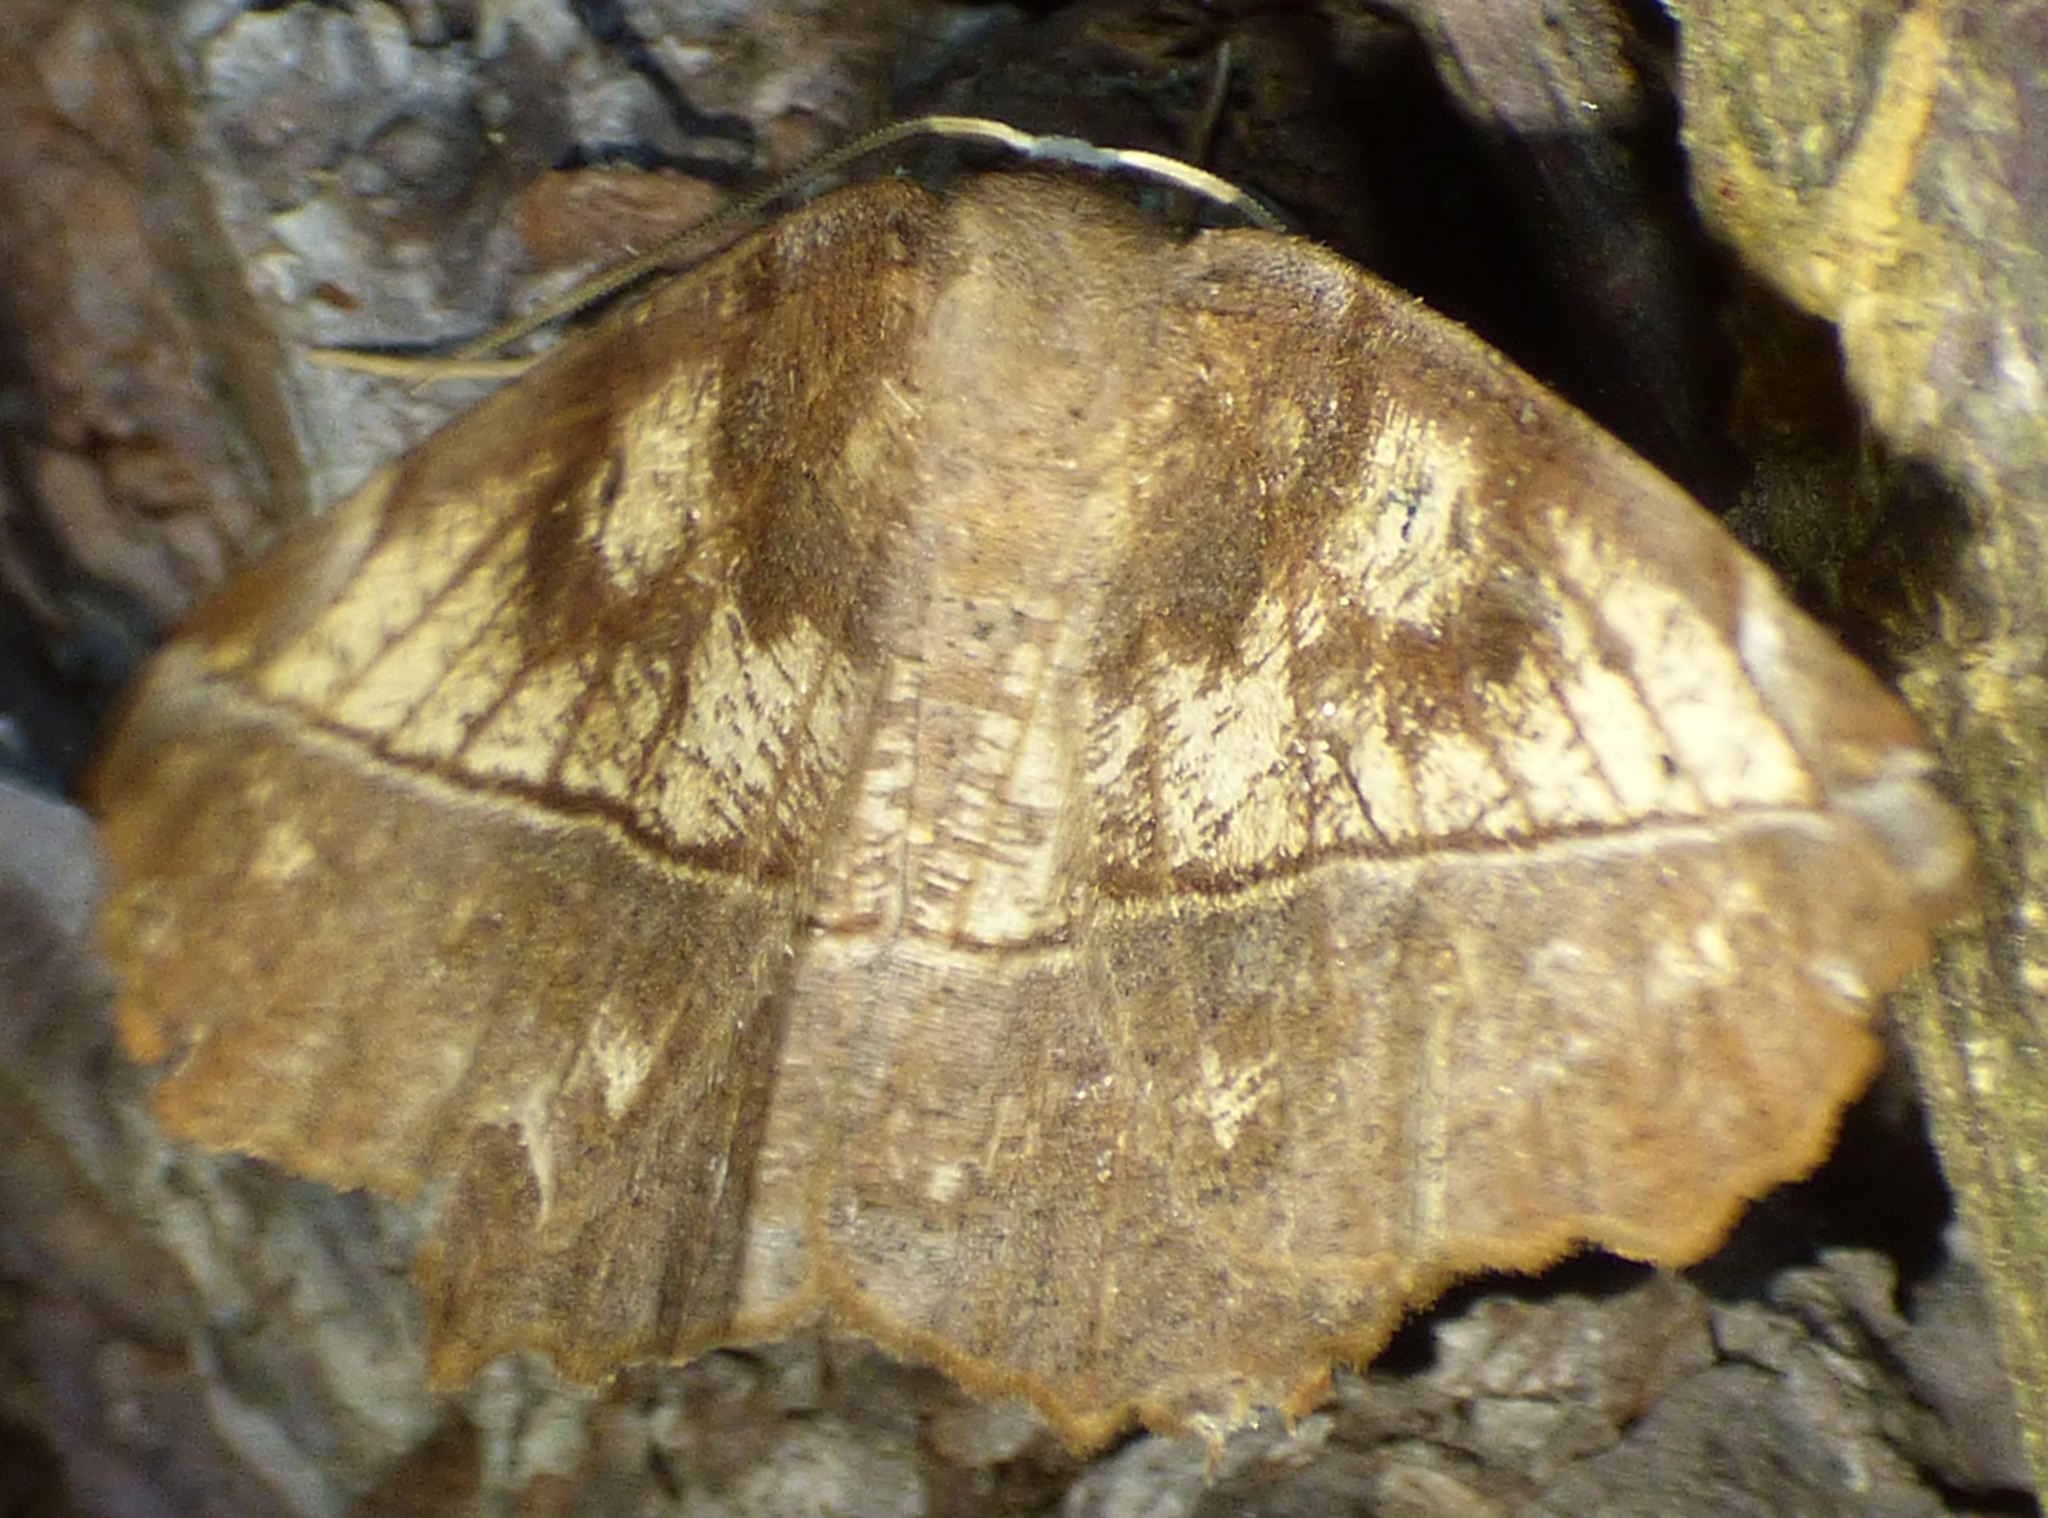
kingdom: Animalia
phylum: Arthropoda
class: Insecta
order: Lepidoptera
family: Geometridae
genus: Eutrapela
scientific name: Eutrapela clemataria
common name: Curved-toothed geometer
